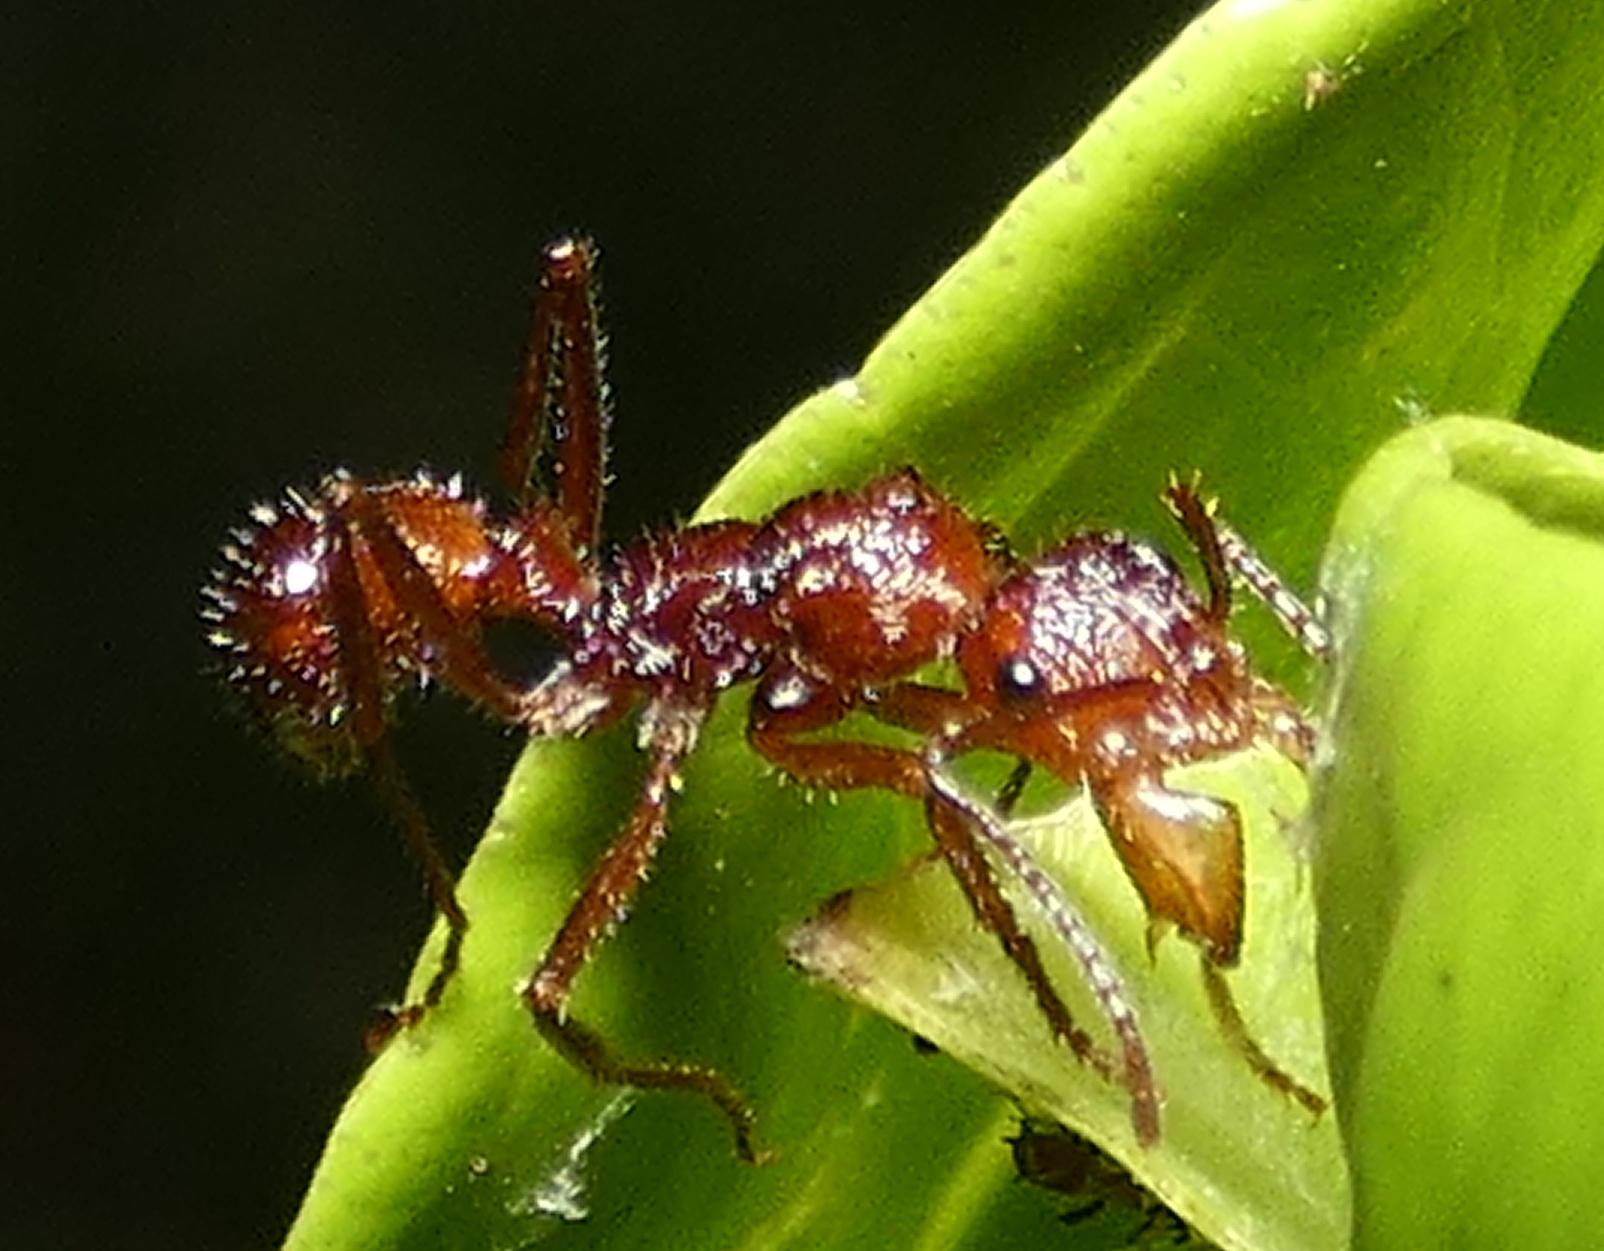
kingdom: Animalia
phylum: Arthropoda
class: Insecta
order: Hymenoptera
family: Formicidae
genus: Ectatomma
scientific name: Ectatomma tuberculatum
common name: Ant
